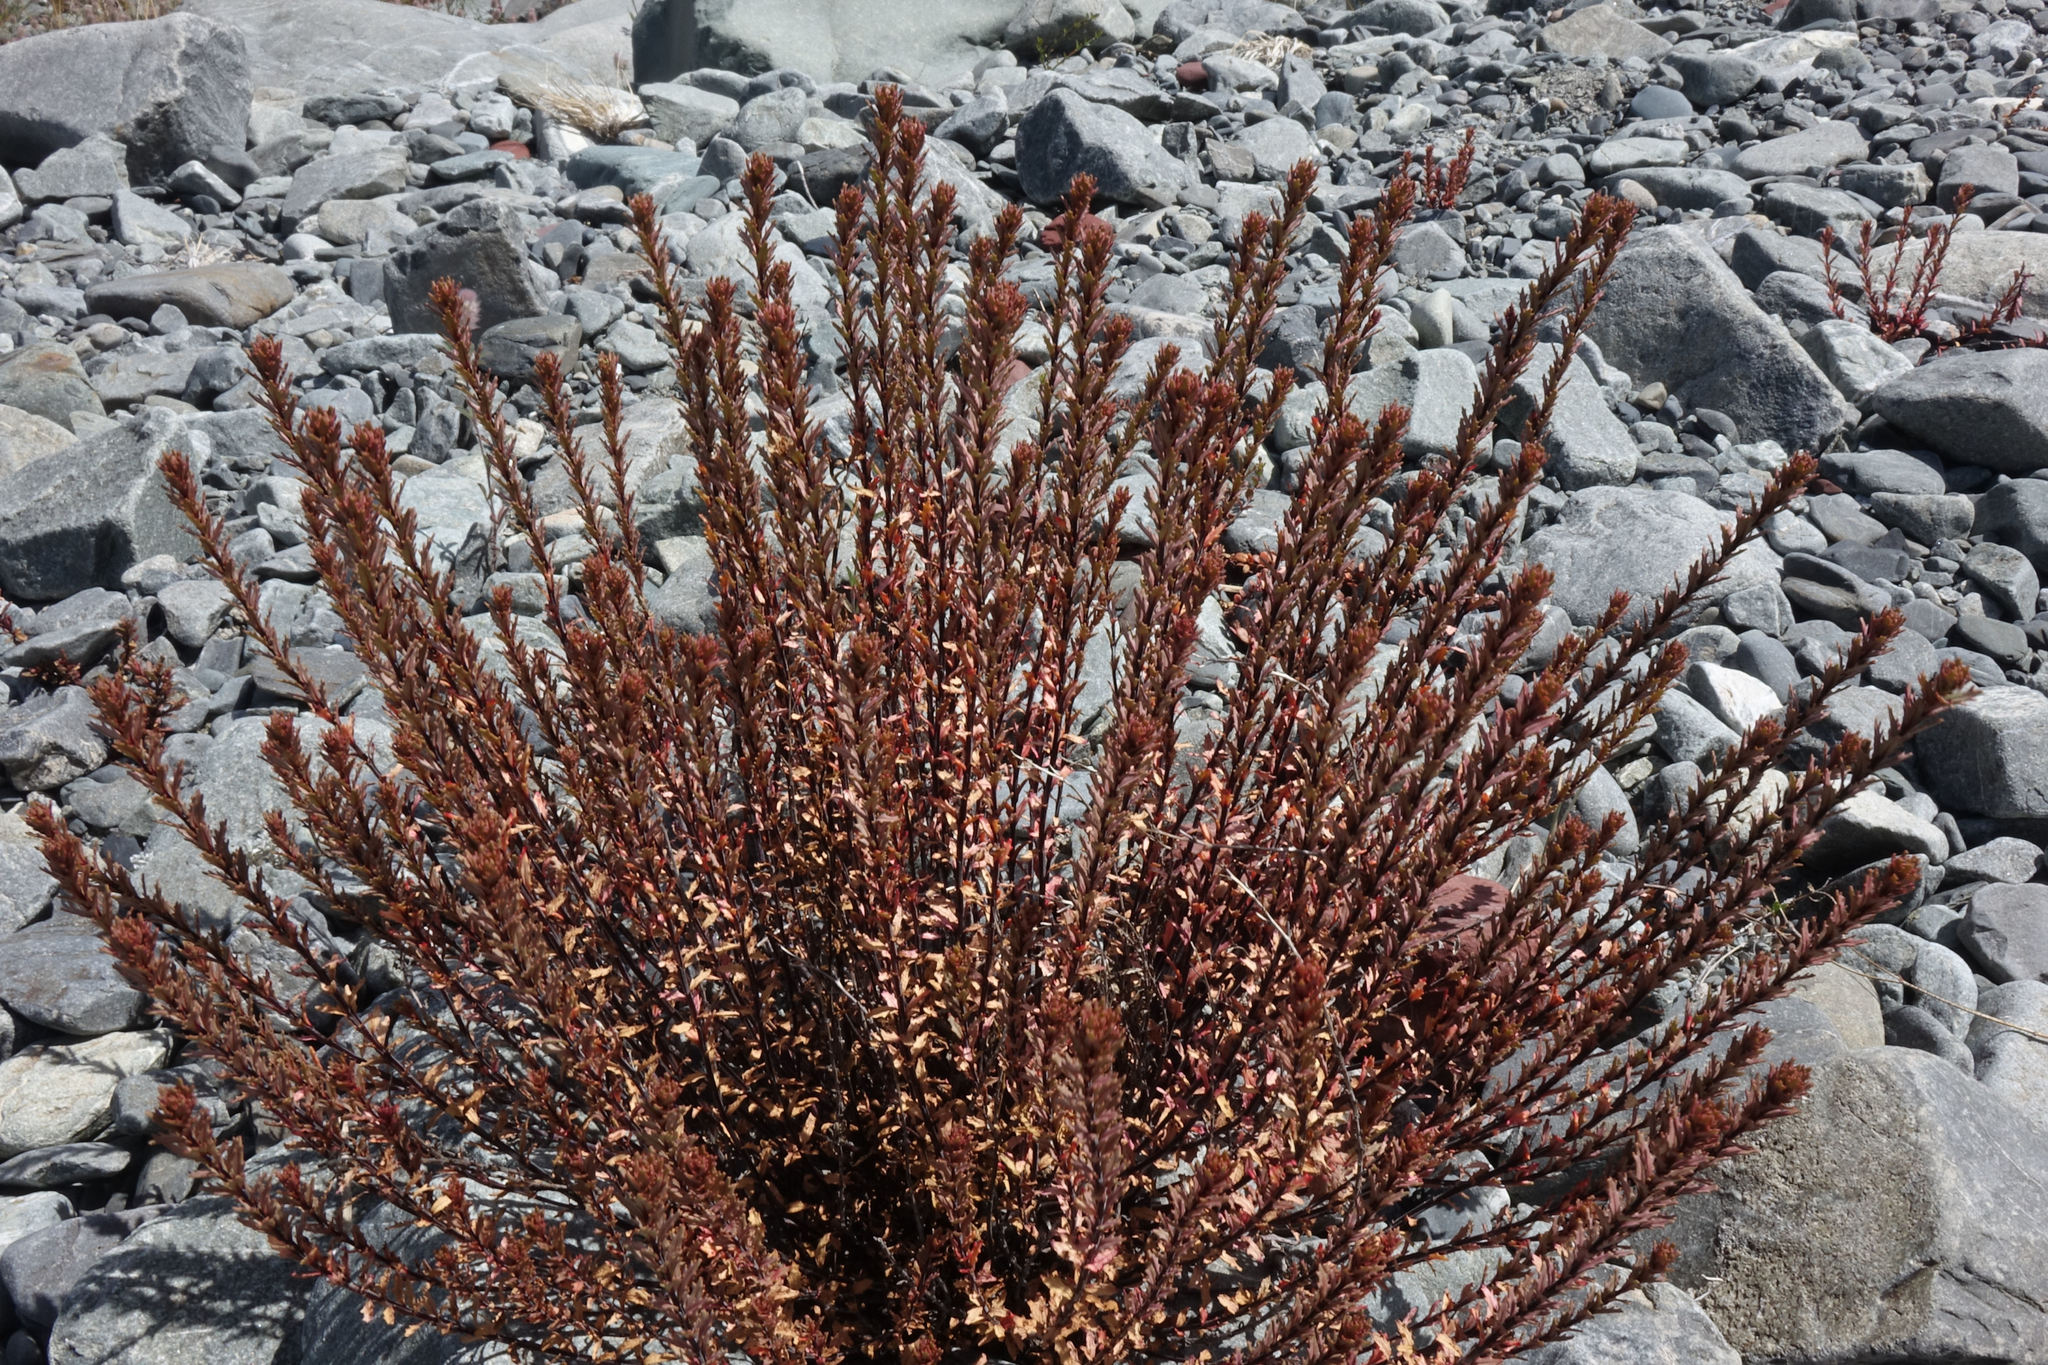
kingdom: Plantae
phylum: Tracheophyta
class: Magnoliopsida
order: Myrtales
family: Onagraceae
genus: Epilobium
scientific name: Epilobium melanocaulon
